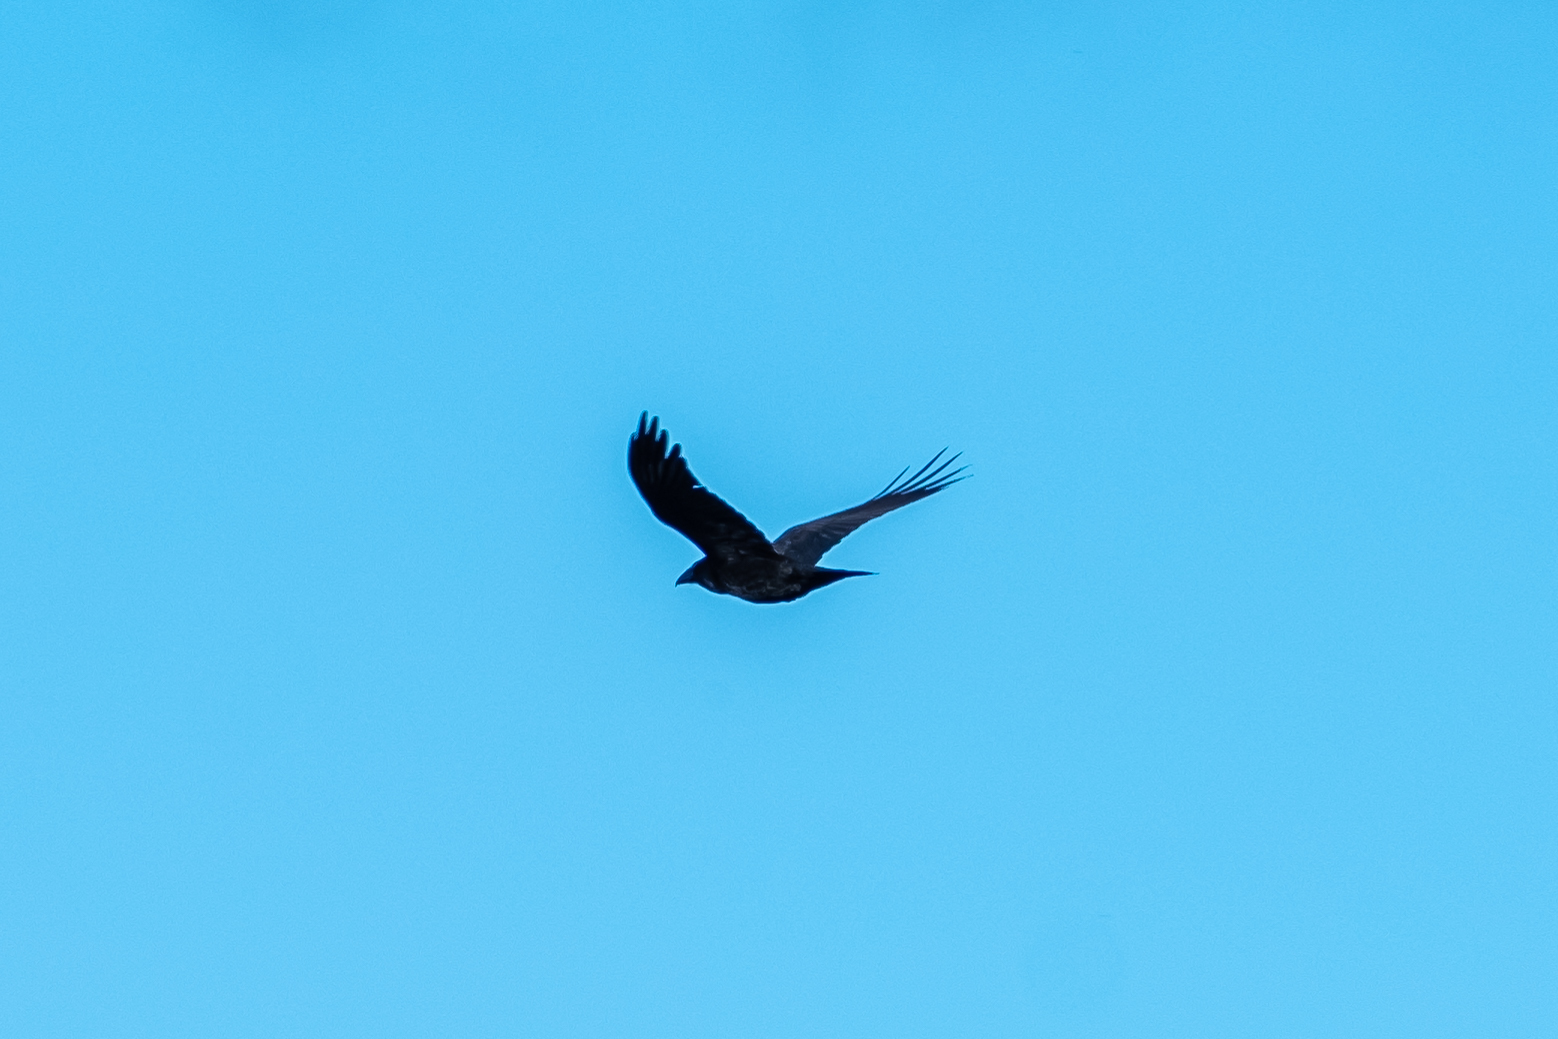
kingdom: Animalia
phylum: Chordata
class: Aves
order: Passeriformes
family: Corvidae
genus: Corvus
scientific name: Corvus corax
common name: Common raven
